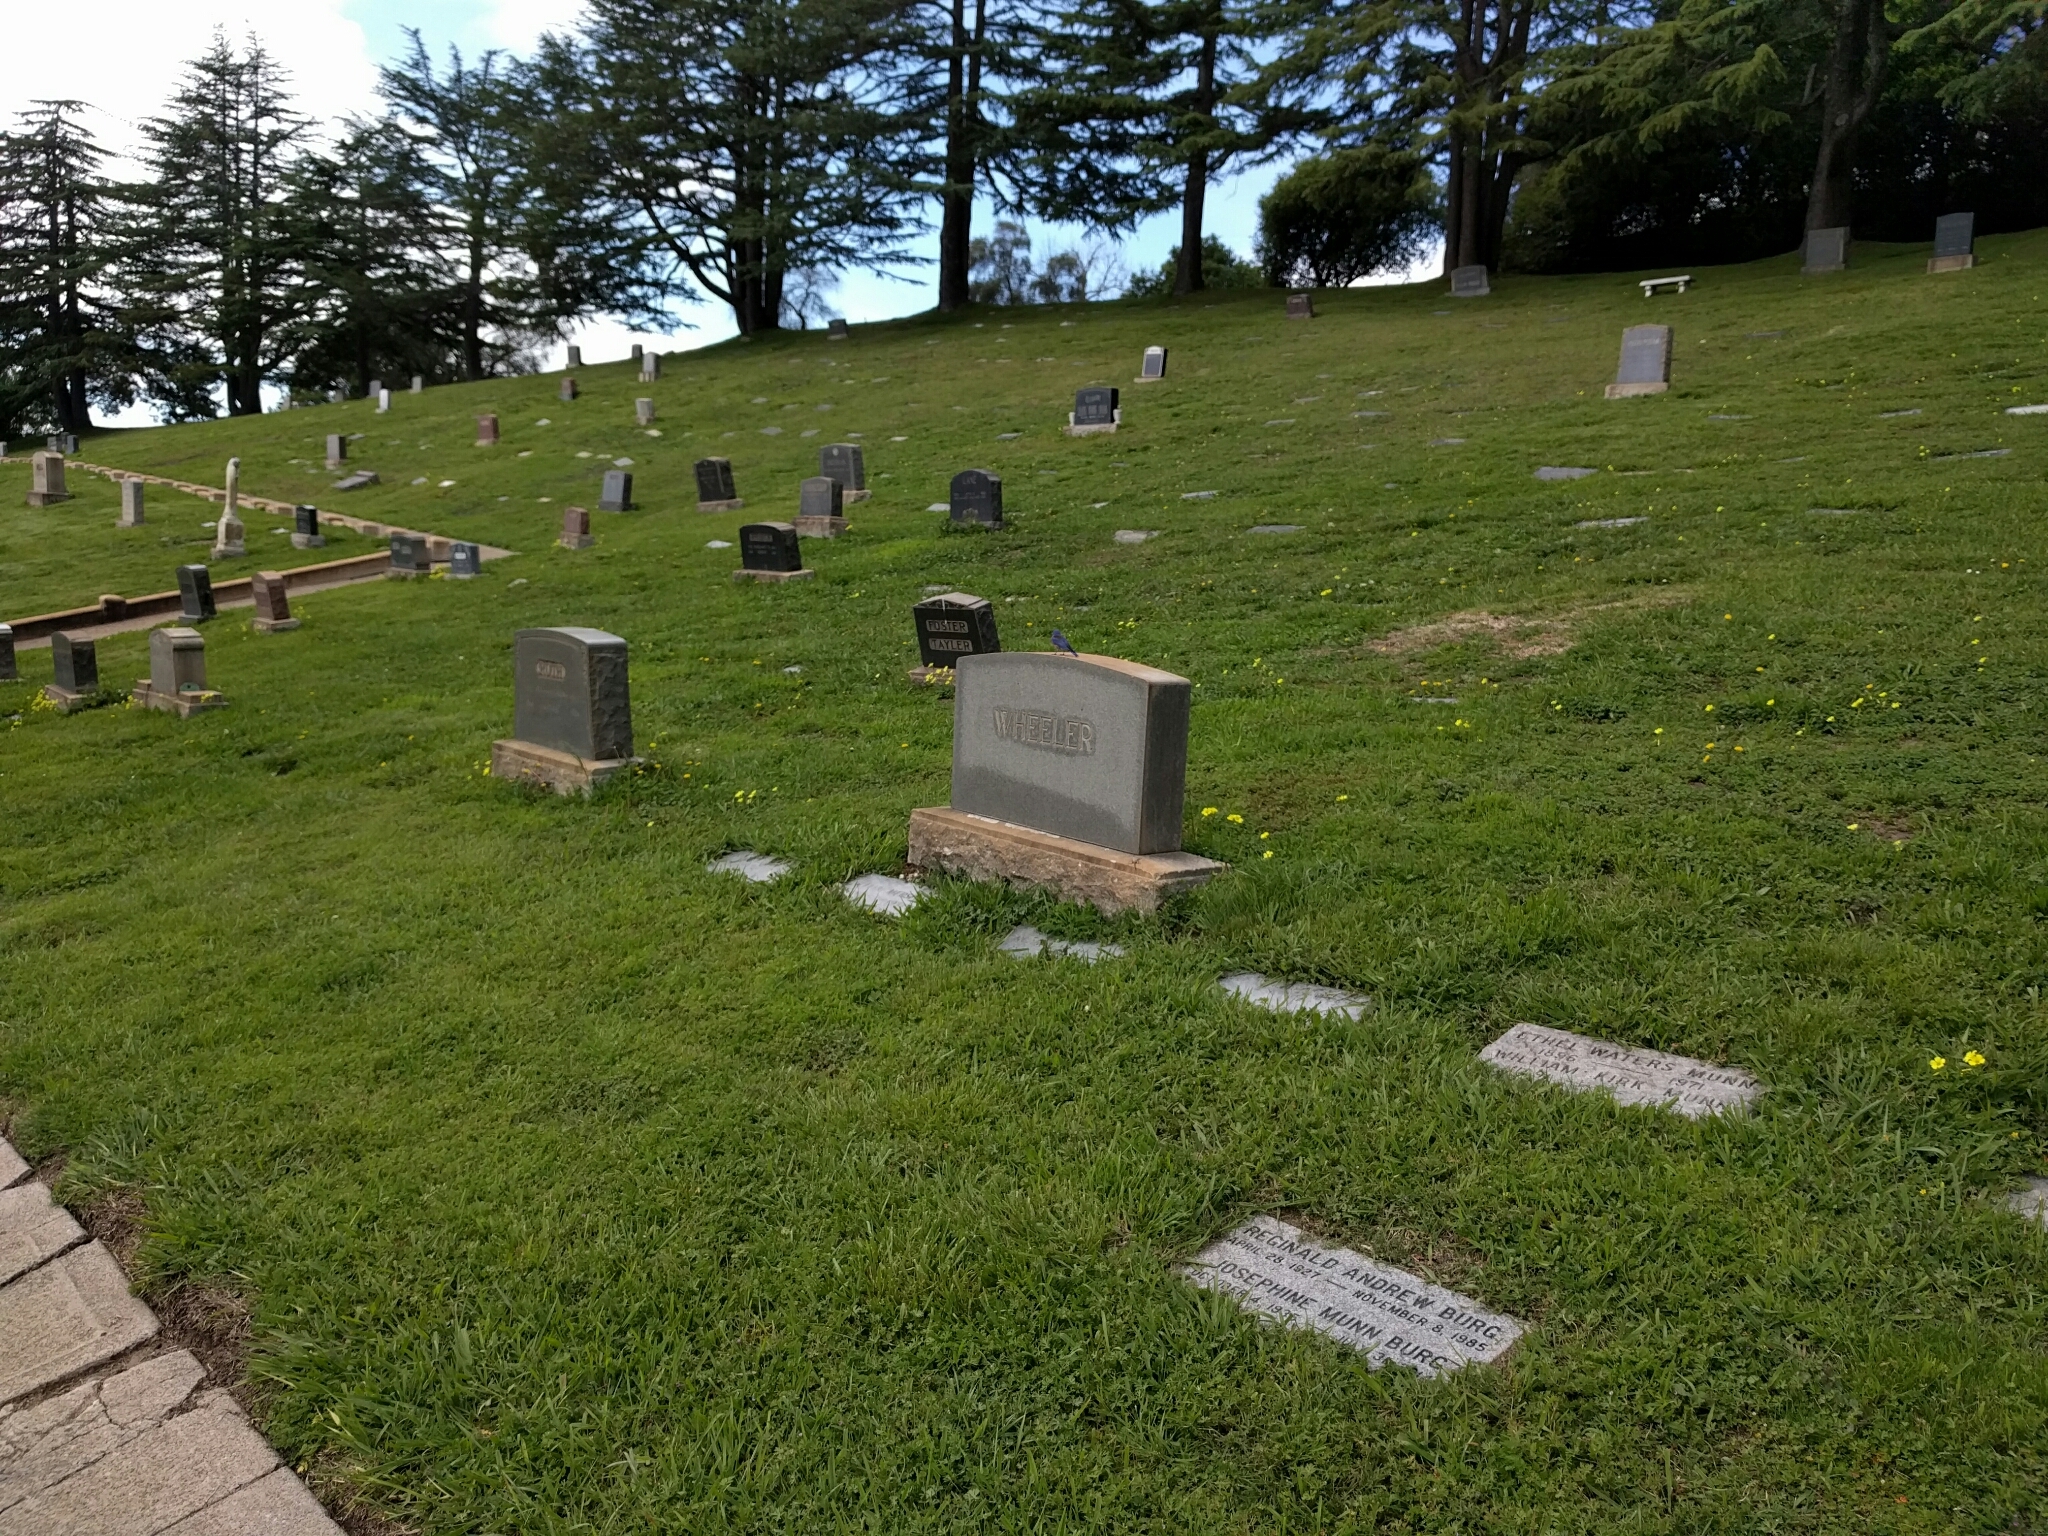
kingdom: Animalia
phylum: Chordata
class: Aves
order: Passeriformes
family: Turdidae
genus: Sialia
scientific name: Sialia mexicana
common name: Western bluebird
